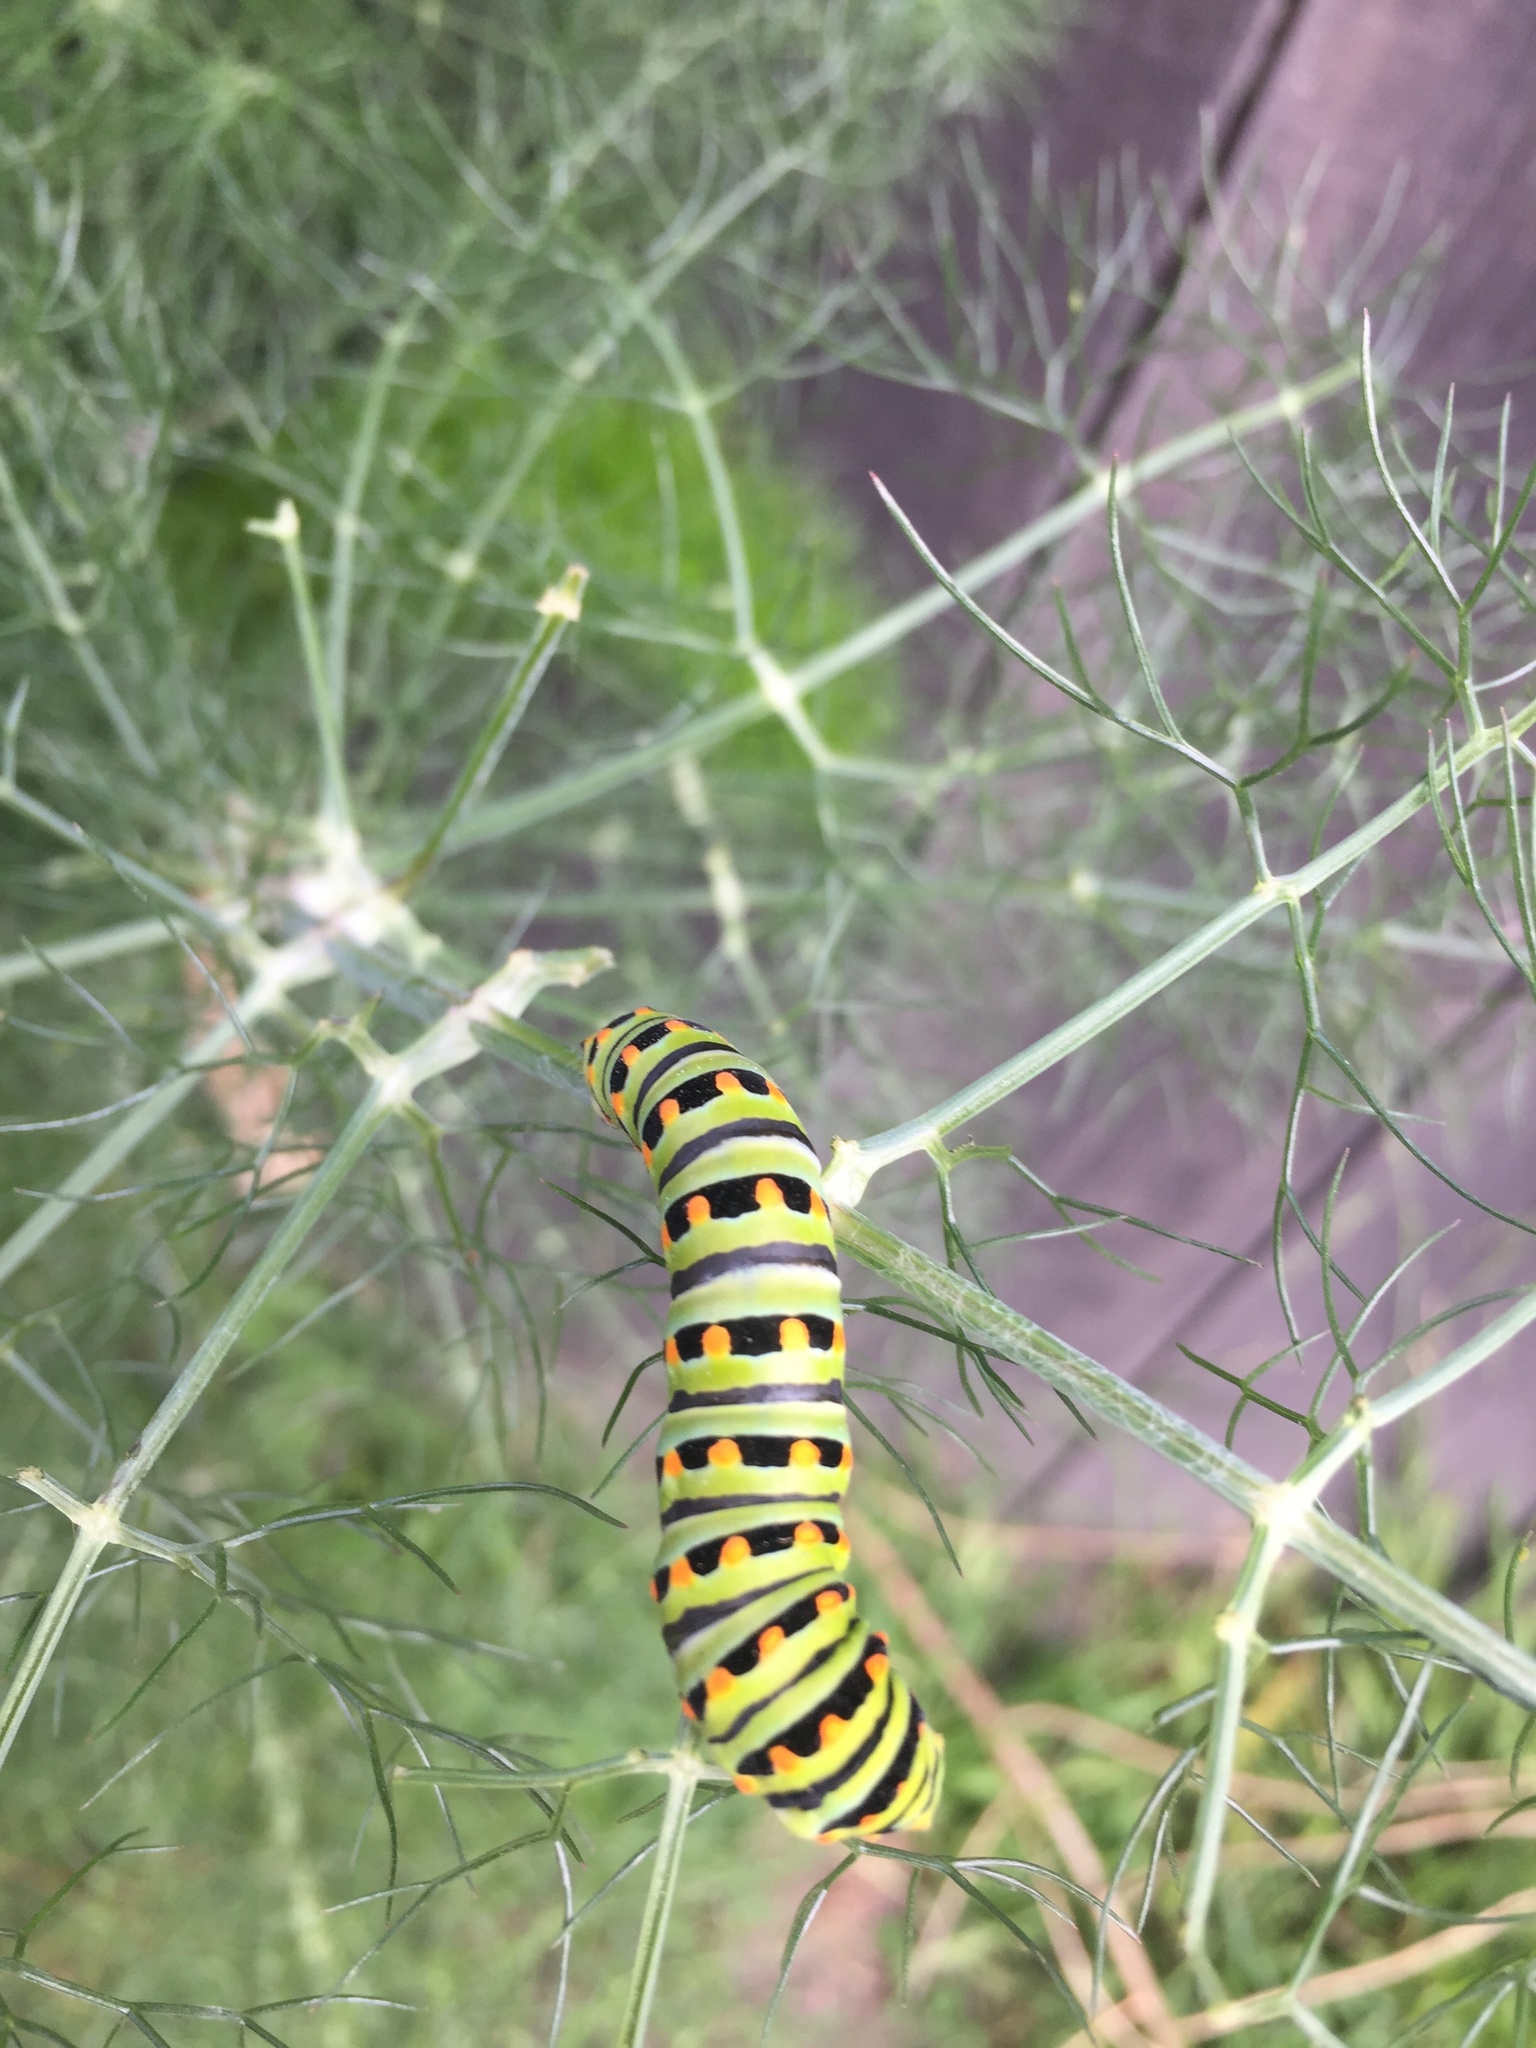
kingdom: Animalia
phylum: Arthropoda
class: Insecta
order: Lepidoptera
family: Papilionidae
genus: Papilio
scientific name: Papilio zelicaon
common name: Anise swallowtail
